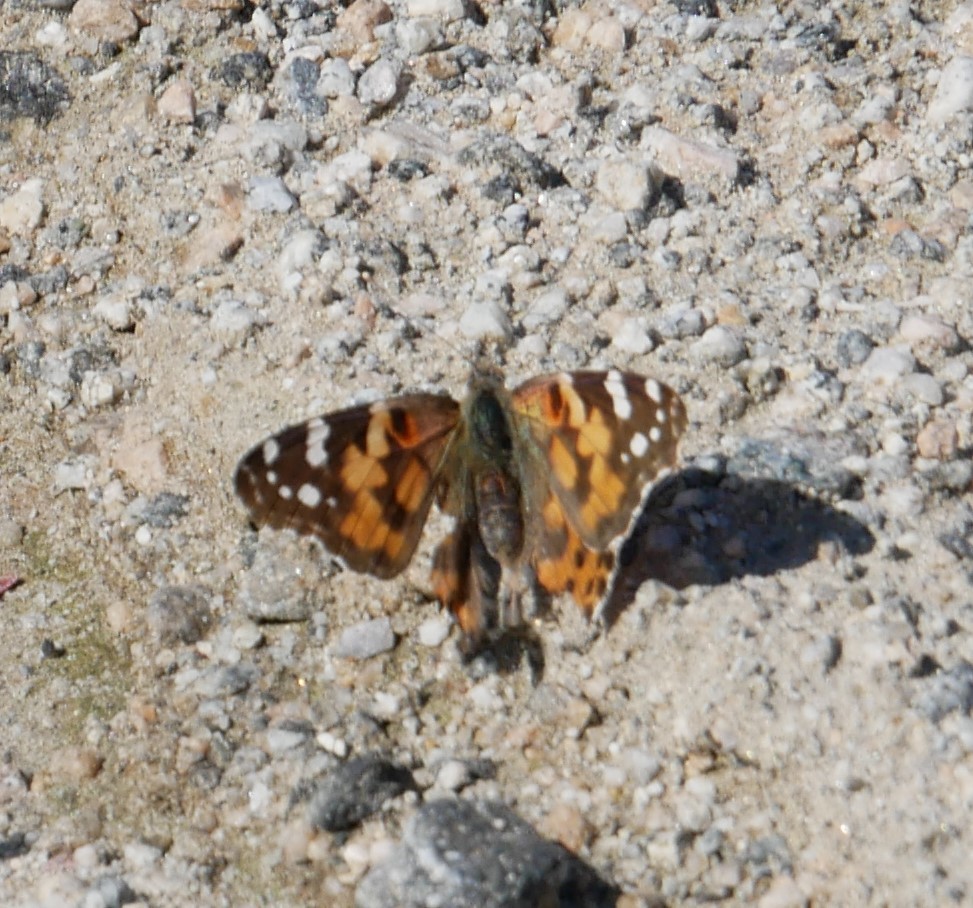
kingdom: Animalia
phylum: Arthropoda
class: Insecta
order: Lepidoptera
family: Nymphalidae
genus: Vanessa
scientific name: Vanessa cardui
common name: Painted lady
